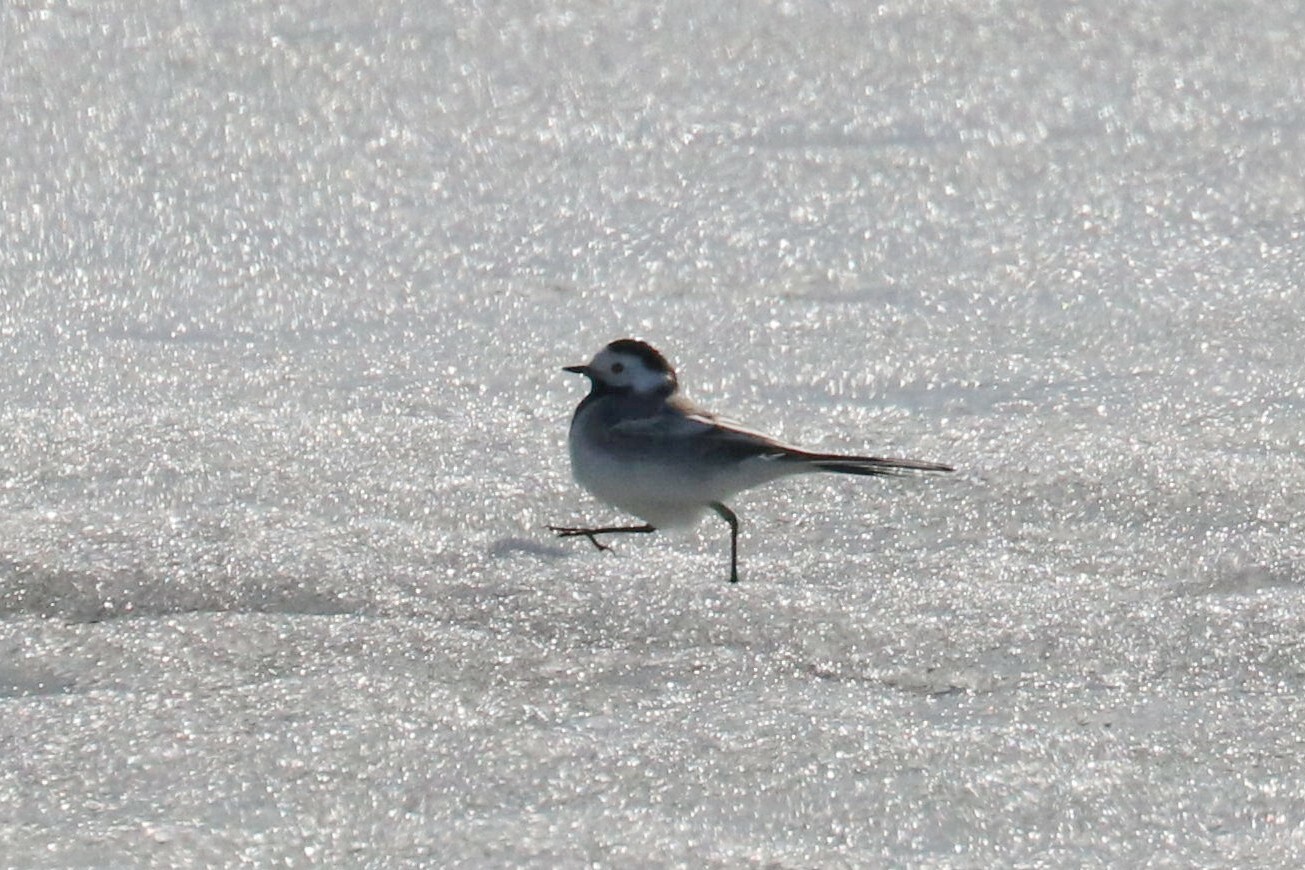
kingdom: Animalia
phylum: Chordata
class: Aves
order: Passeriformes
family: Motacillidae
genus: Motacilla
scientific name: Motacilla alba
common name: White wagtail
